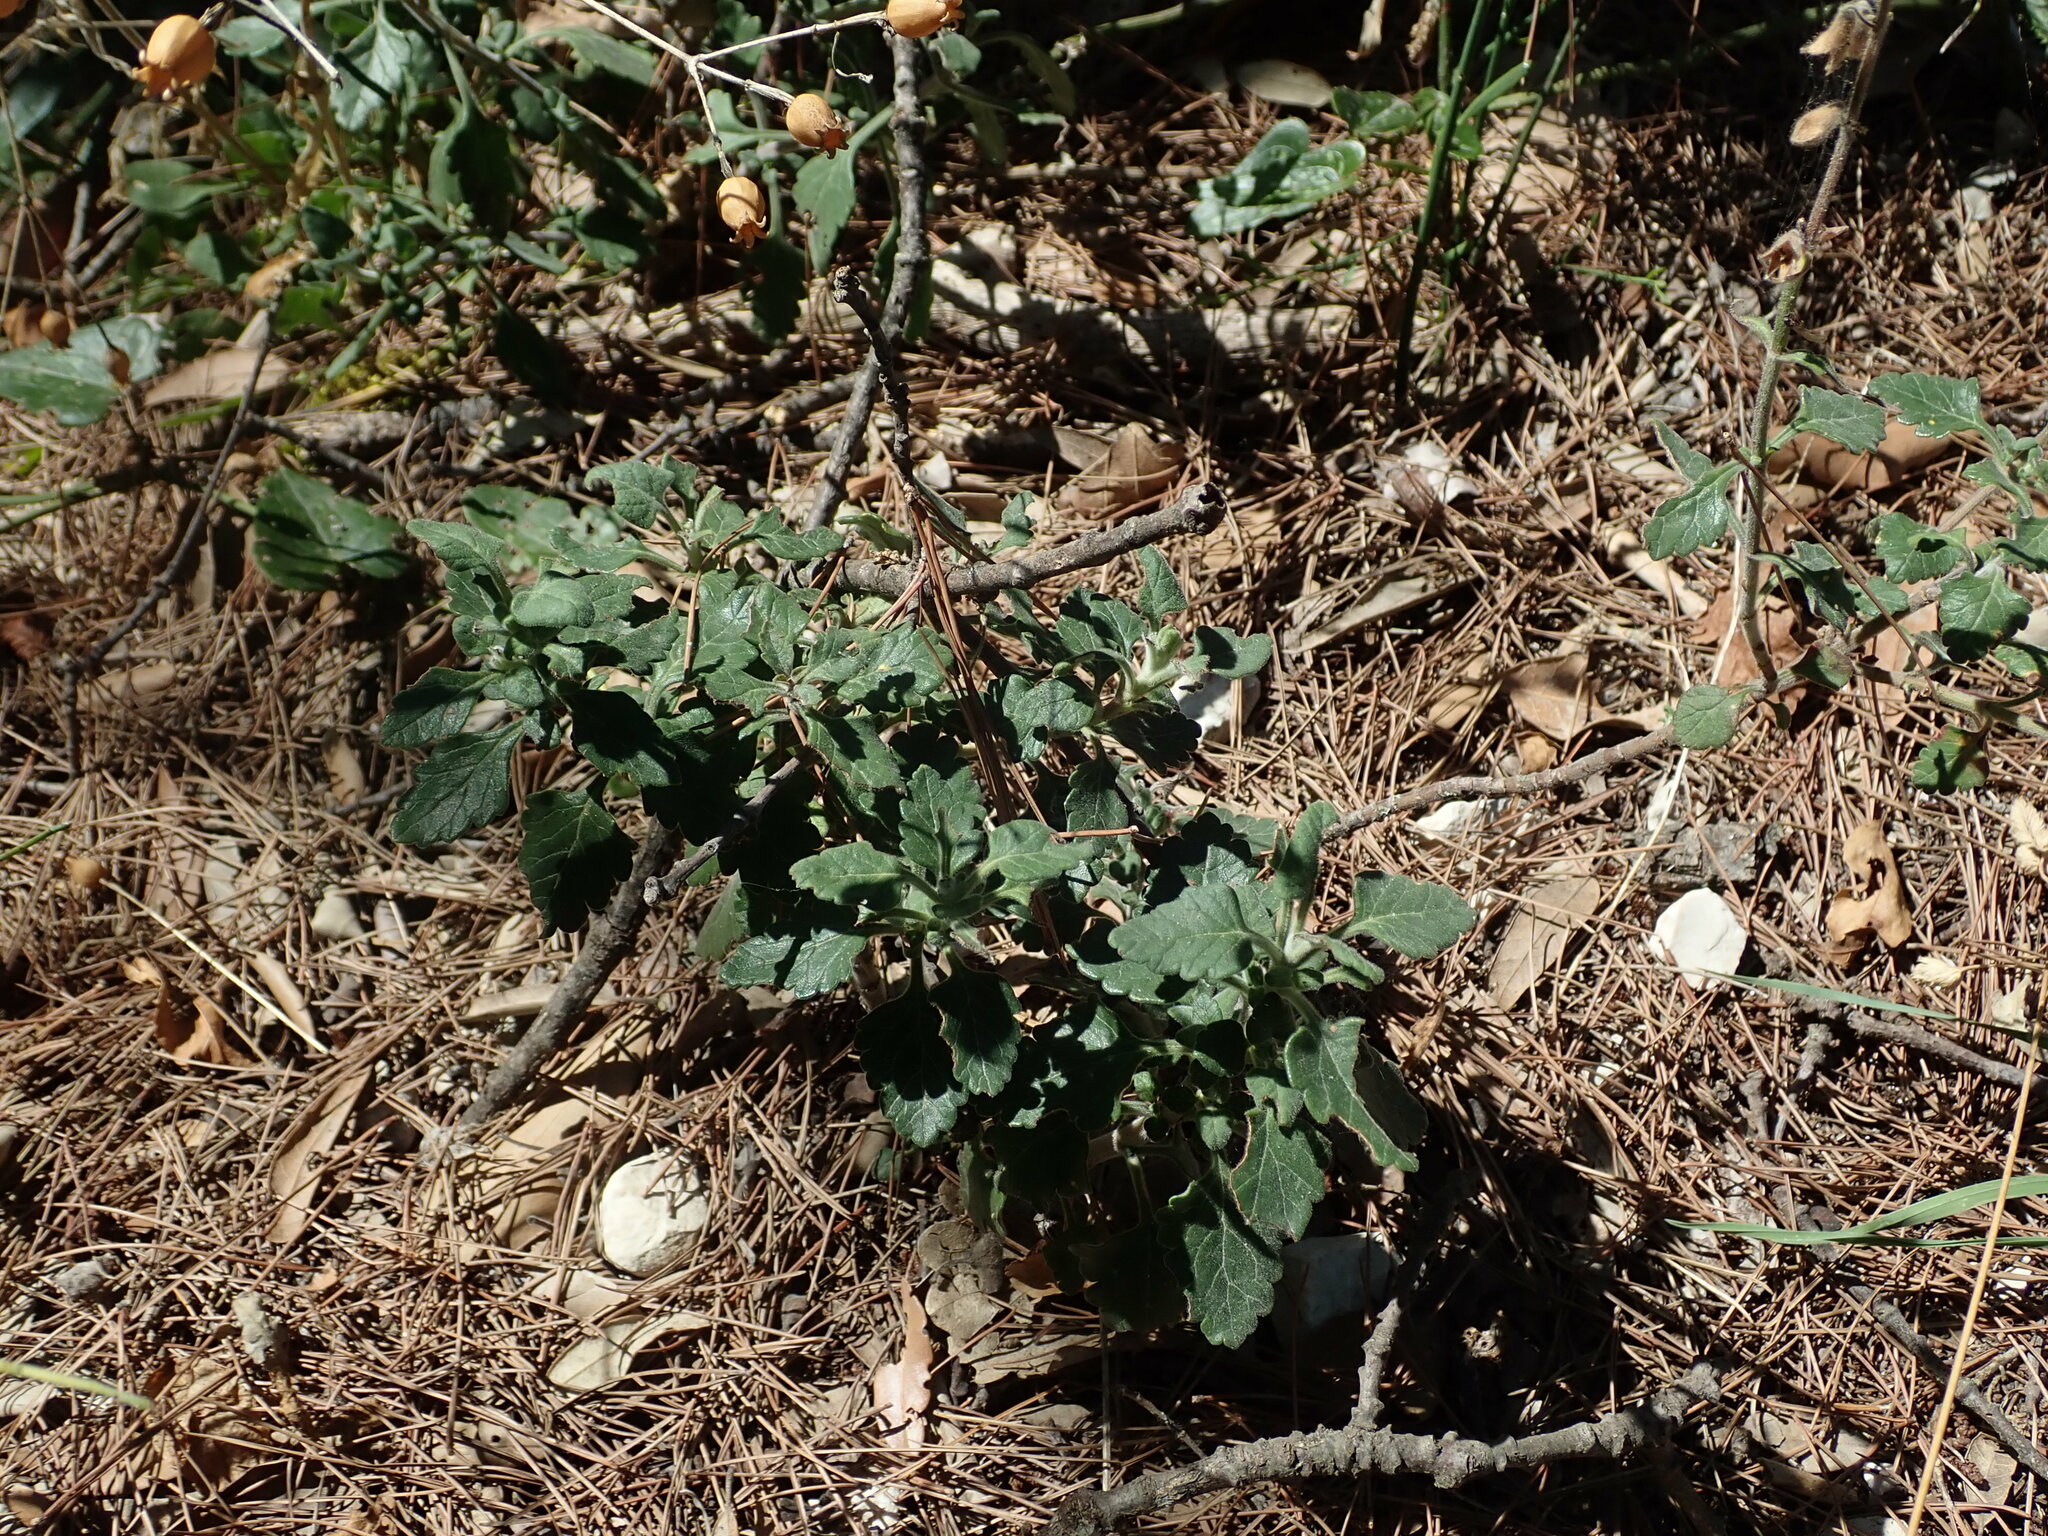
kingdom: Plantae
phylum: Tracheophyta
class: Magnoliopsida
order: Lamiales
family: Lamiaceae
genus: Teucrium
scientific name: Teucrium flavum
